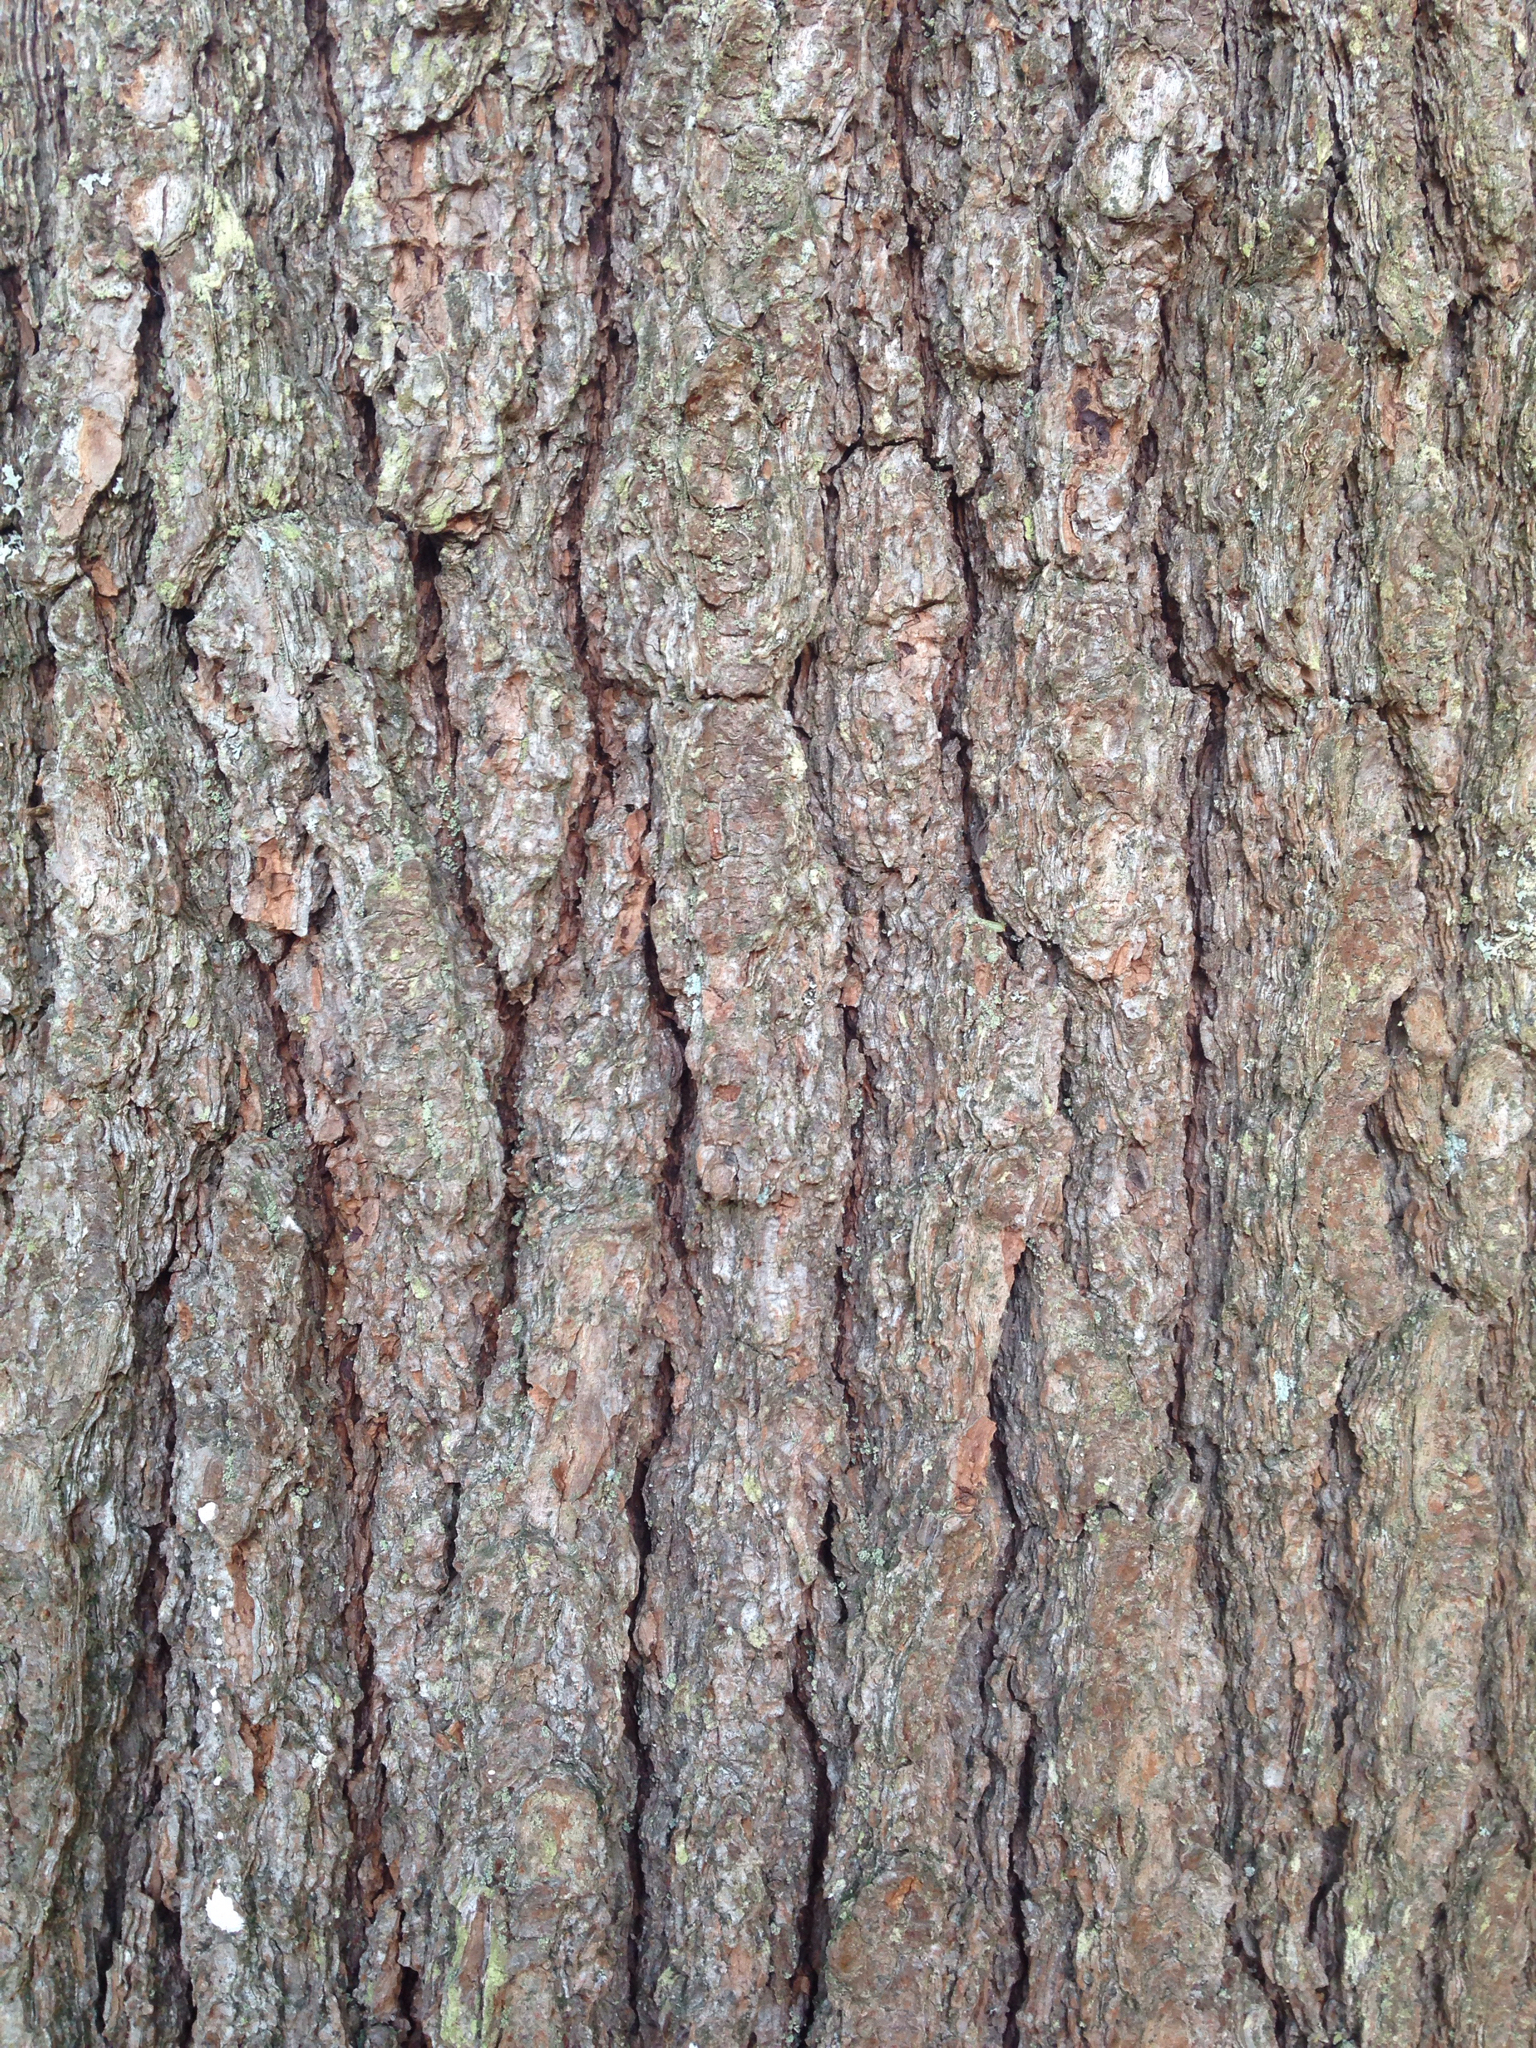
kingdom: Plantae
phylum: Tracheophyta
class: Pinopsida
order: Pinales
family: Pinaceae
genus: Pinus
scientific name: Pinus strobus
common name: Weymouth pine
